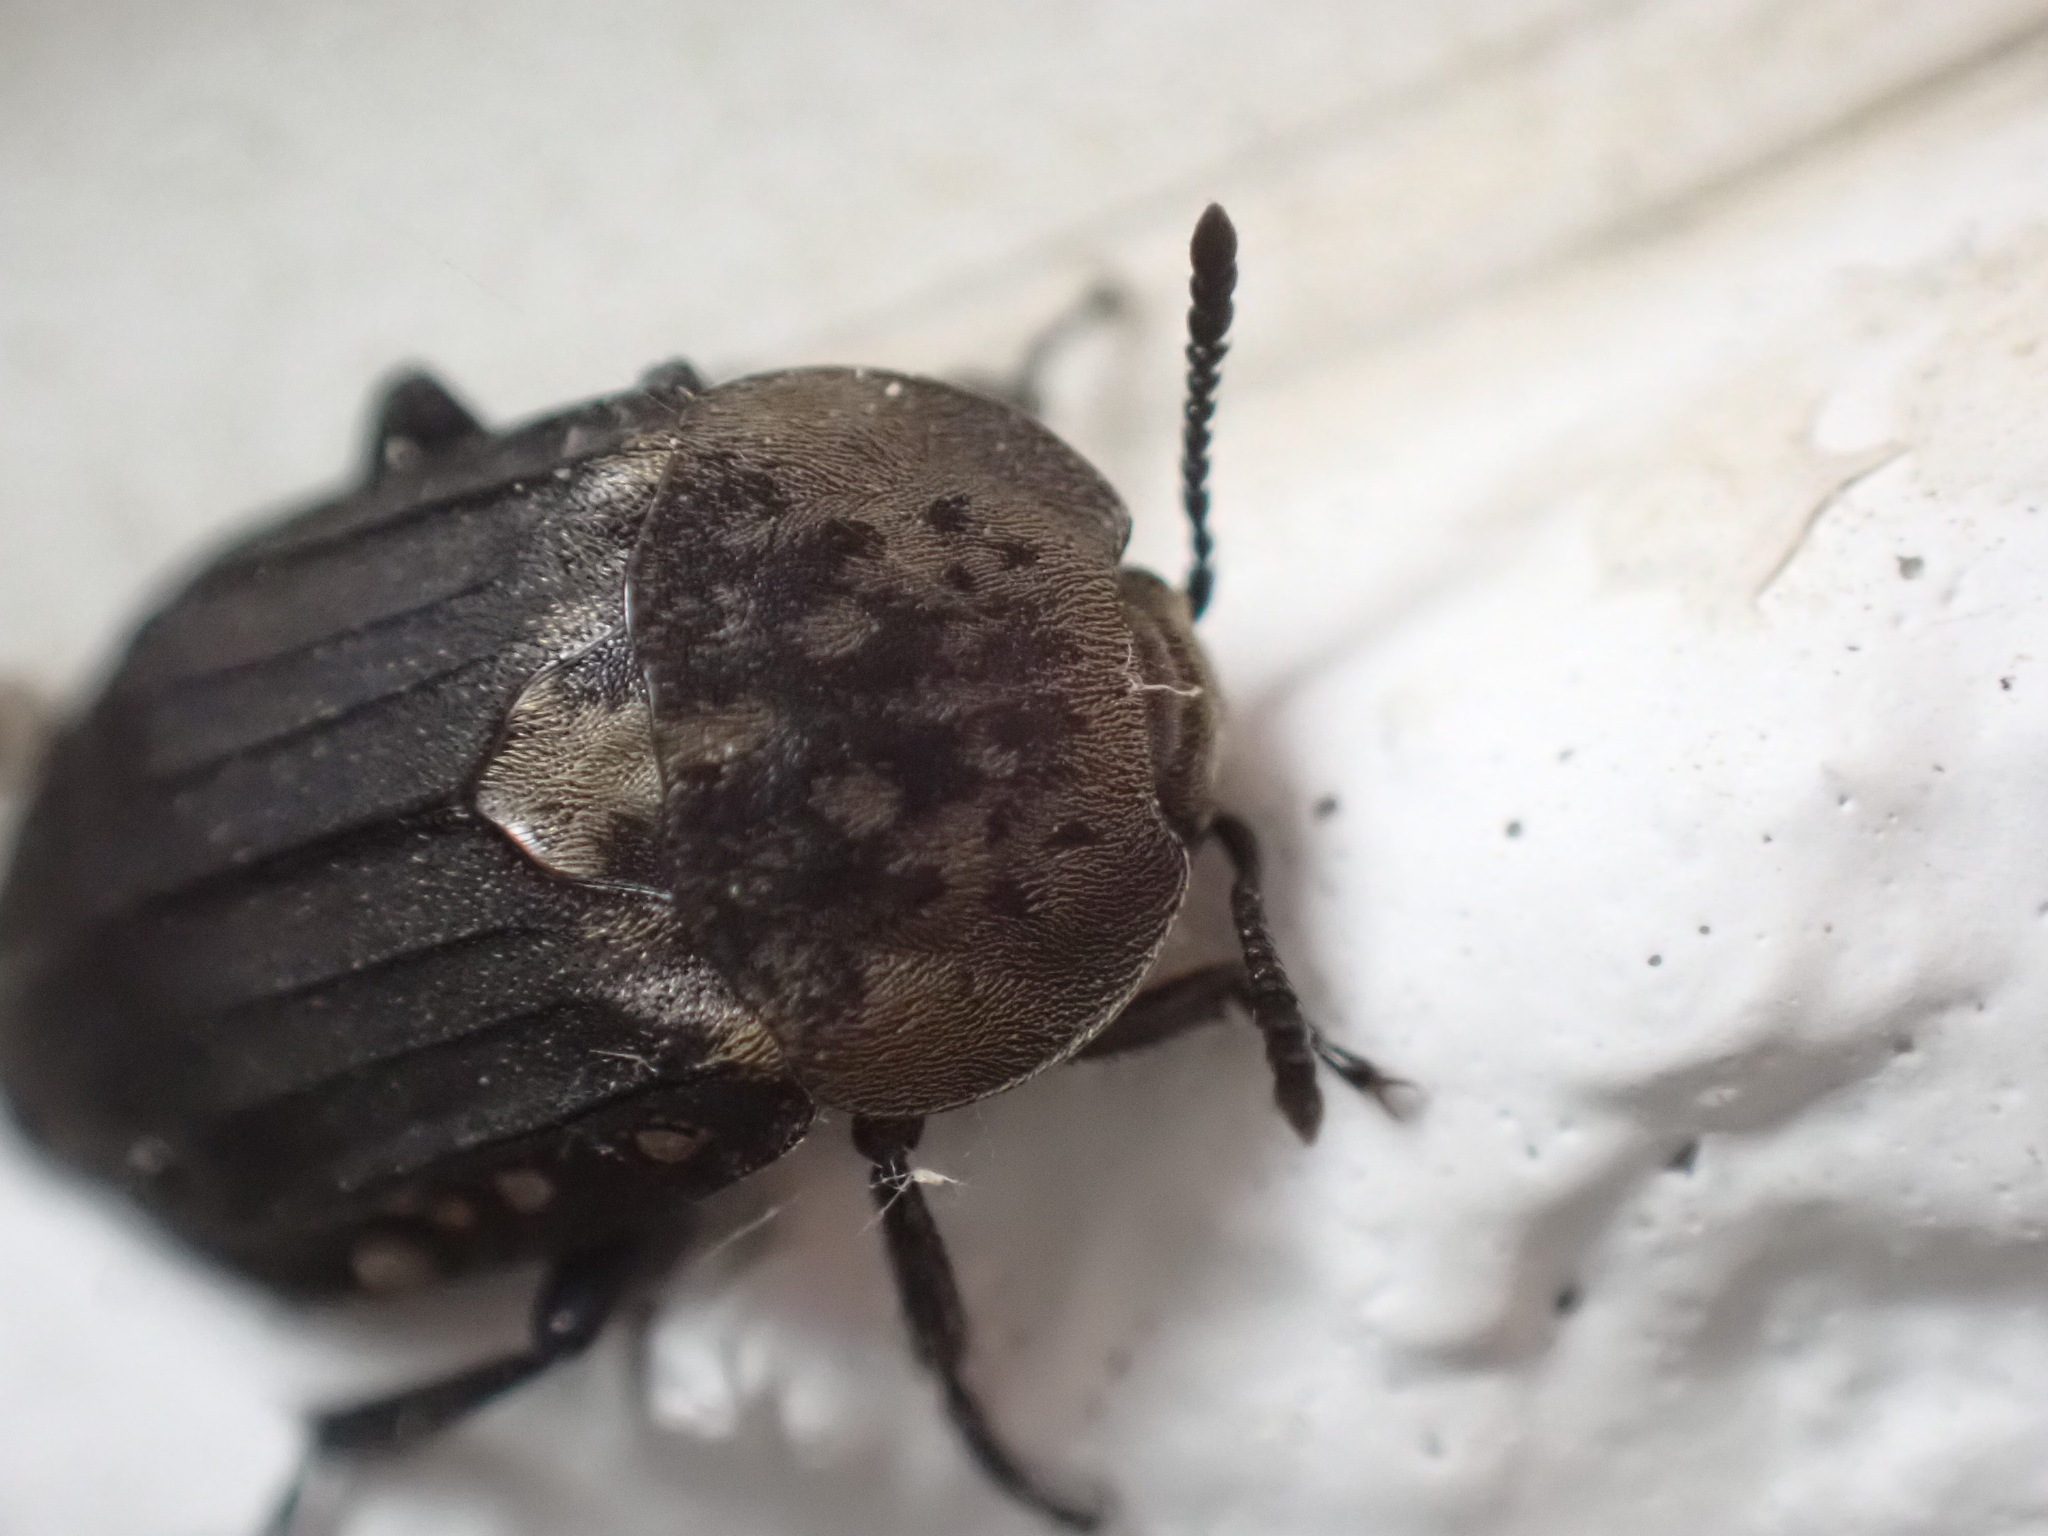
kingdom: Animalia
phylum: Arthropoda
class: Insecta
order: Coleoptera
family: Staphylinidae
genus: Thanatophilus
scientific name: Thanatophilus lapponicus
